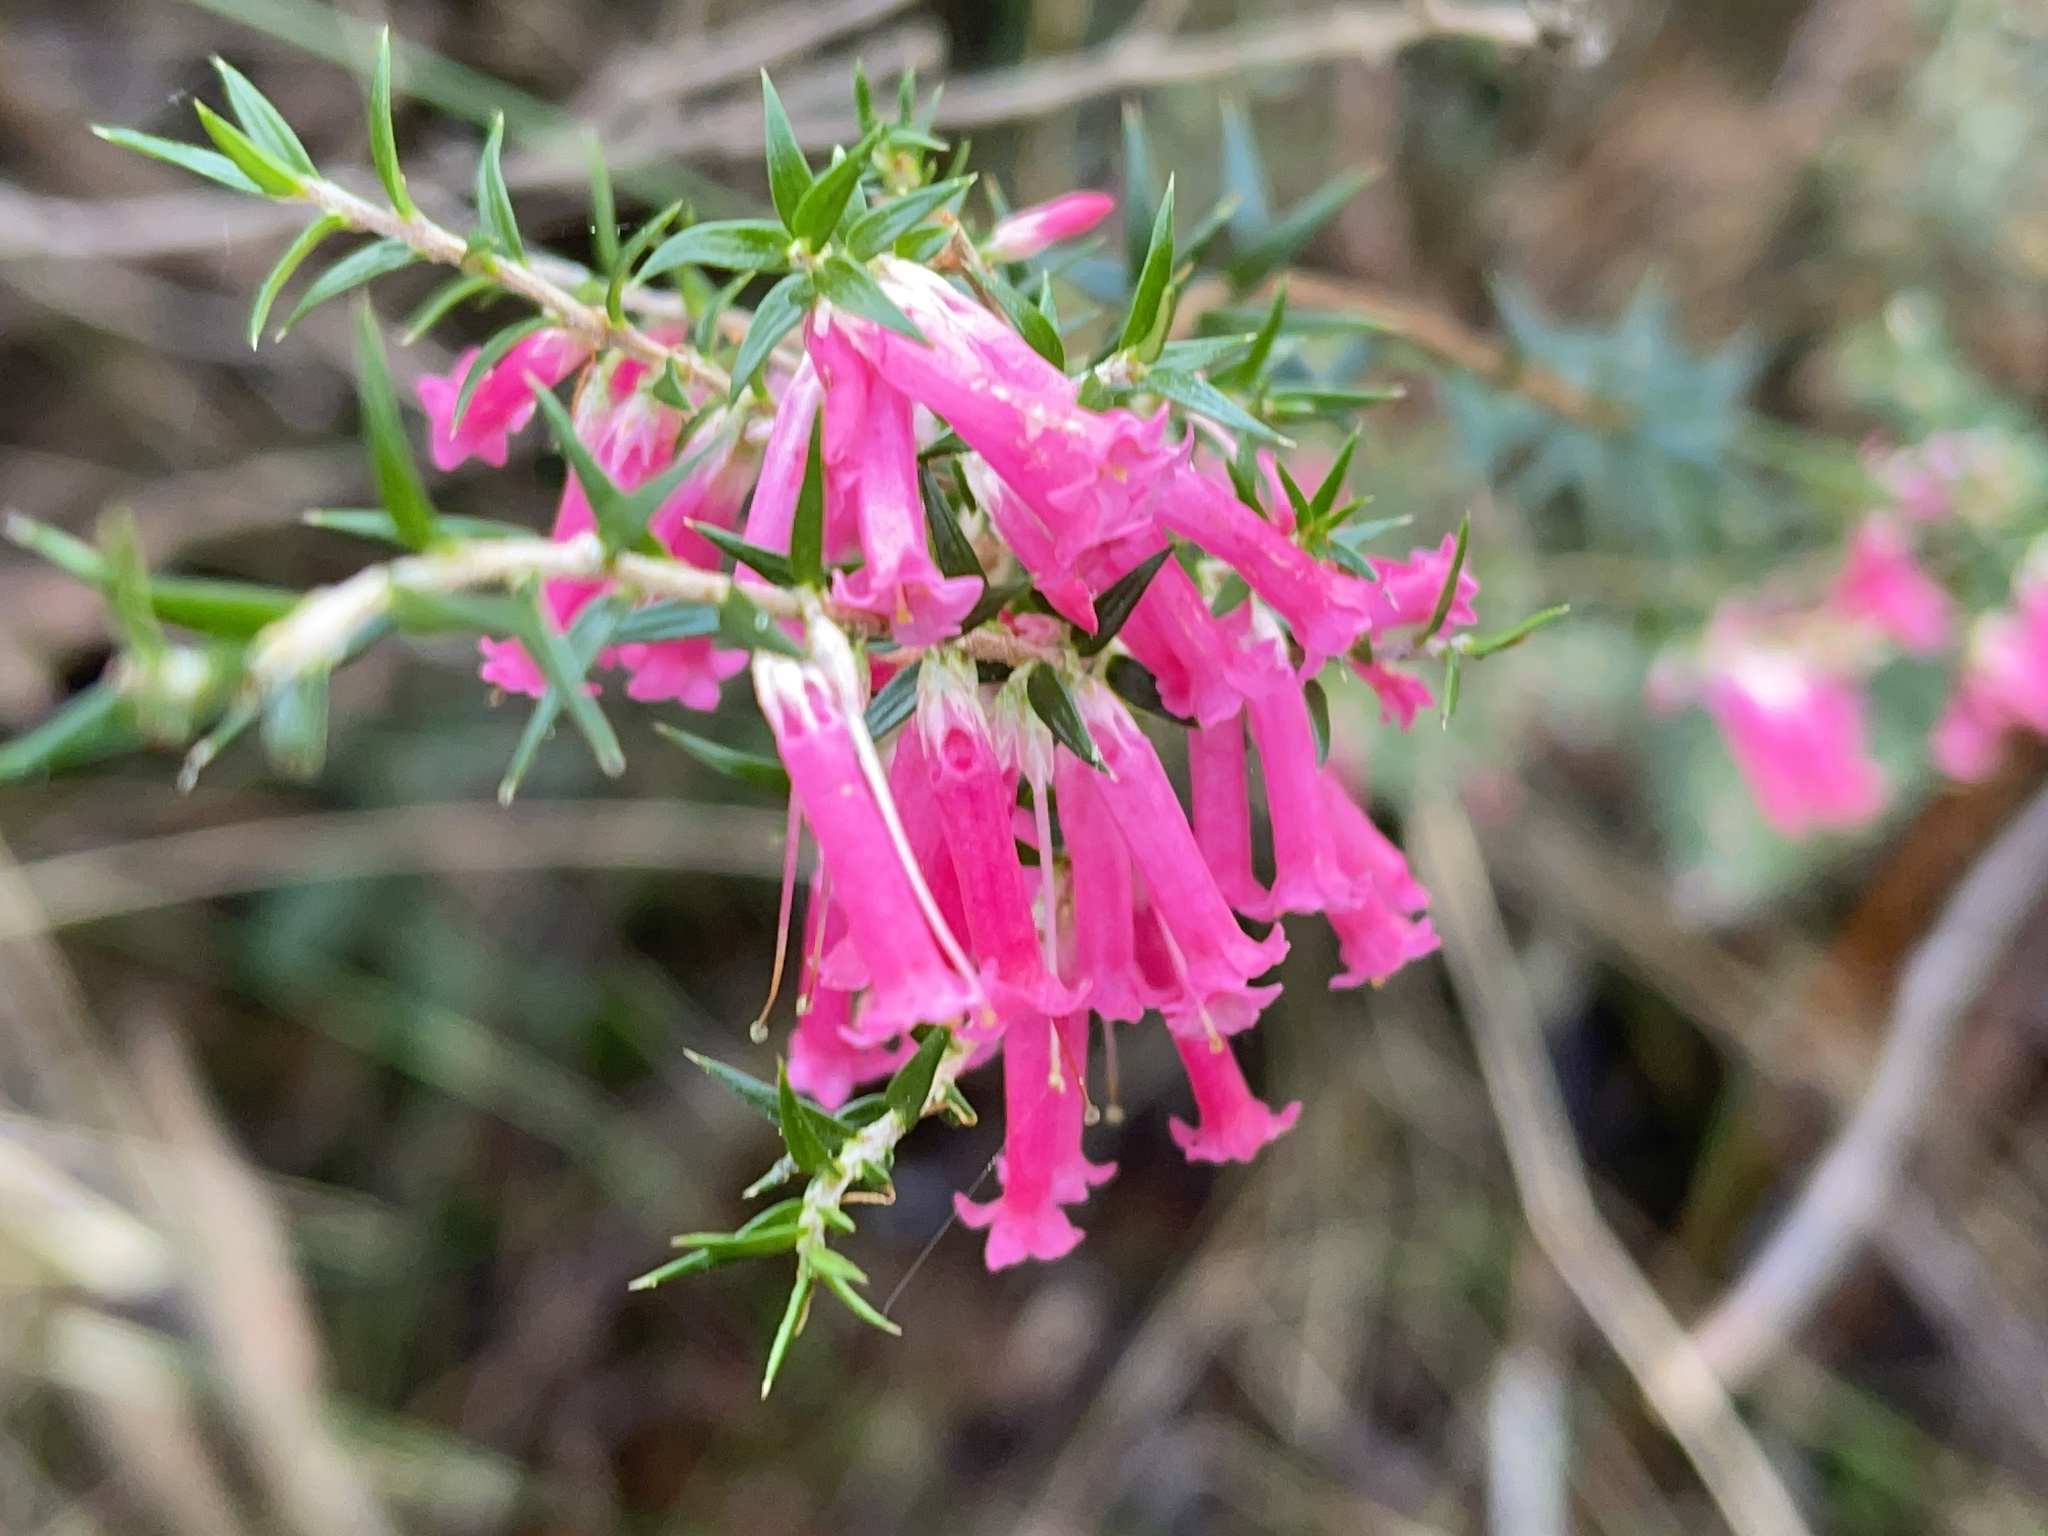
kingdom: Plantae
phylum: Tracheophyta
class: Magnoliopsida
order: Ericales
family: Ericaceae
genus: Epacris
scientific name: Epacris impressa
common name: Common-heath
